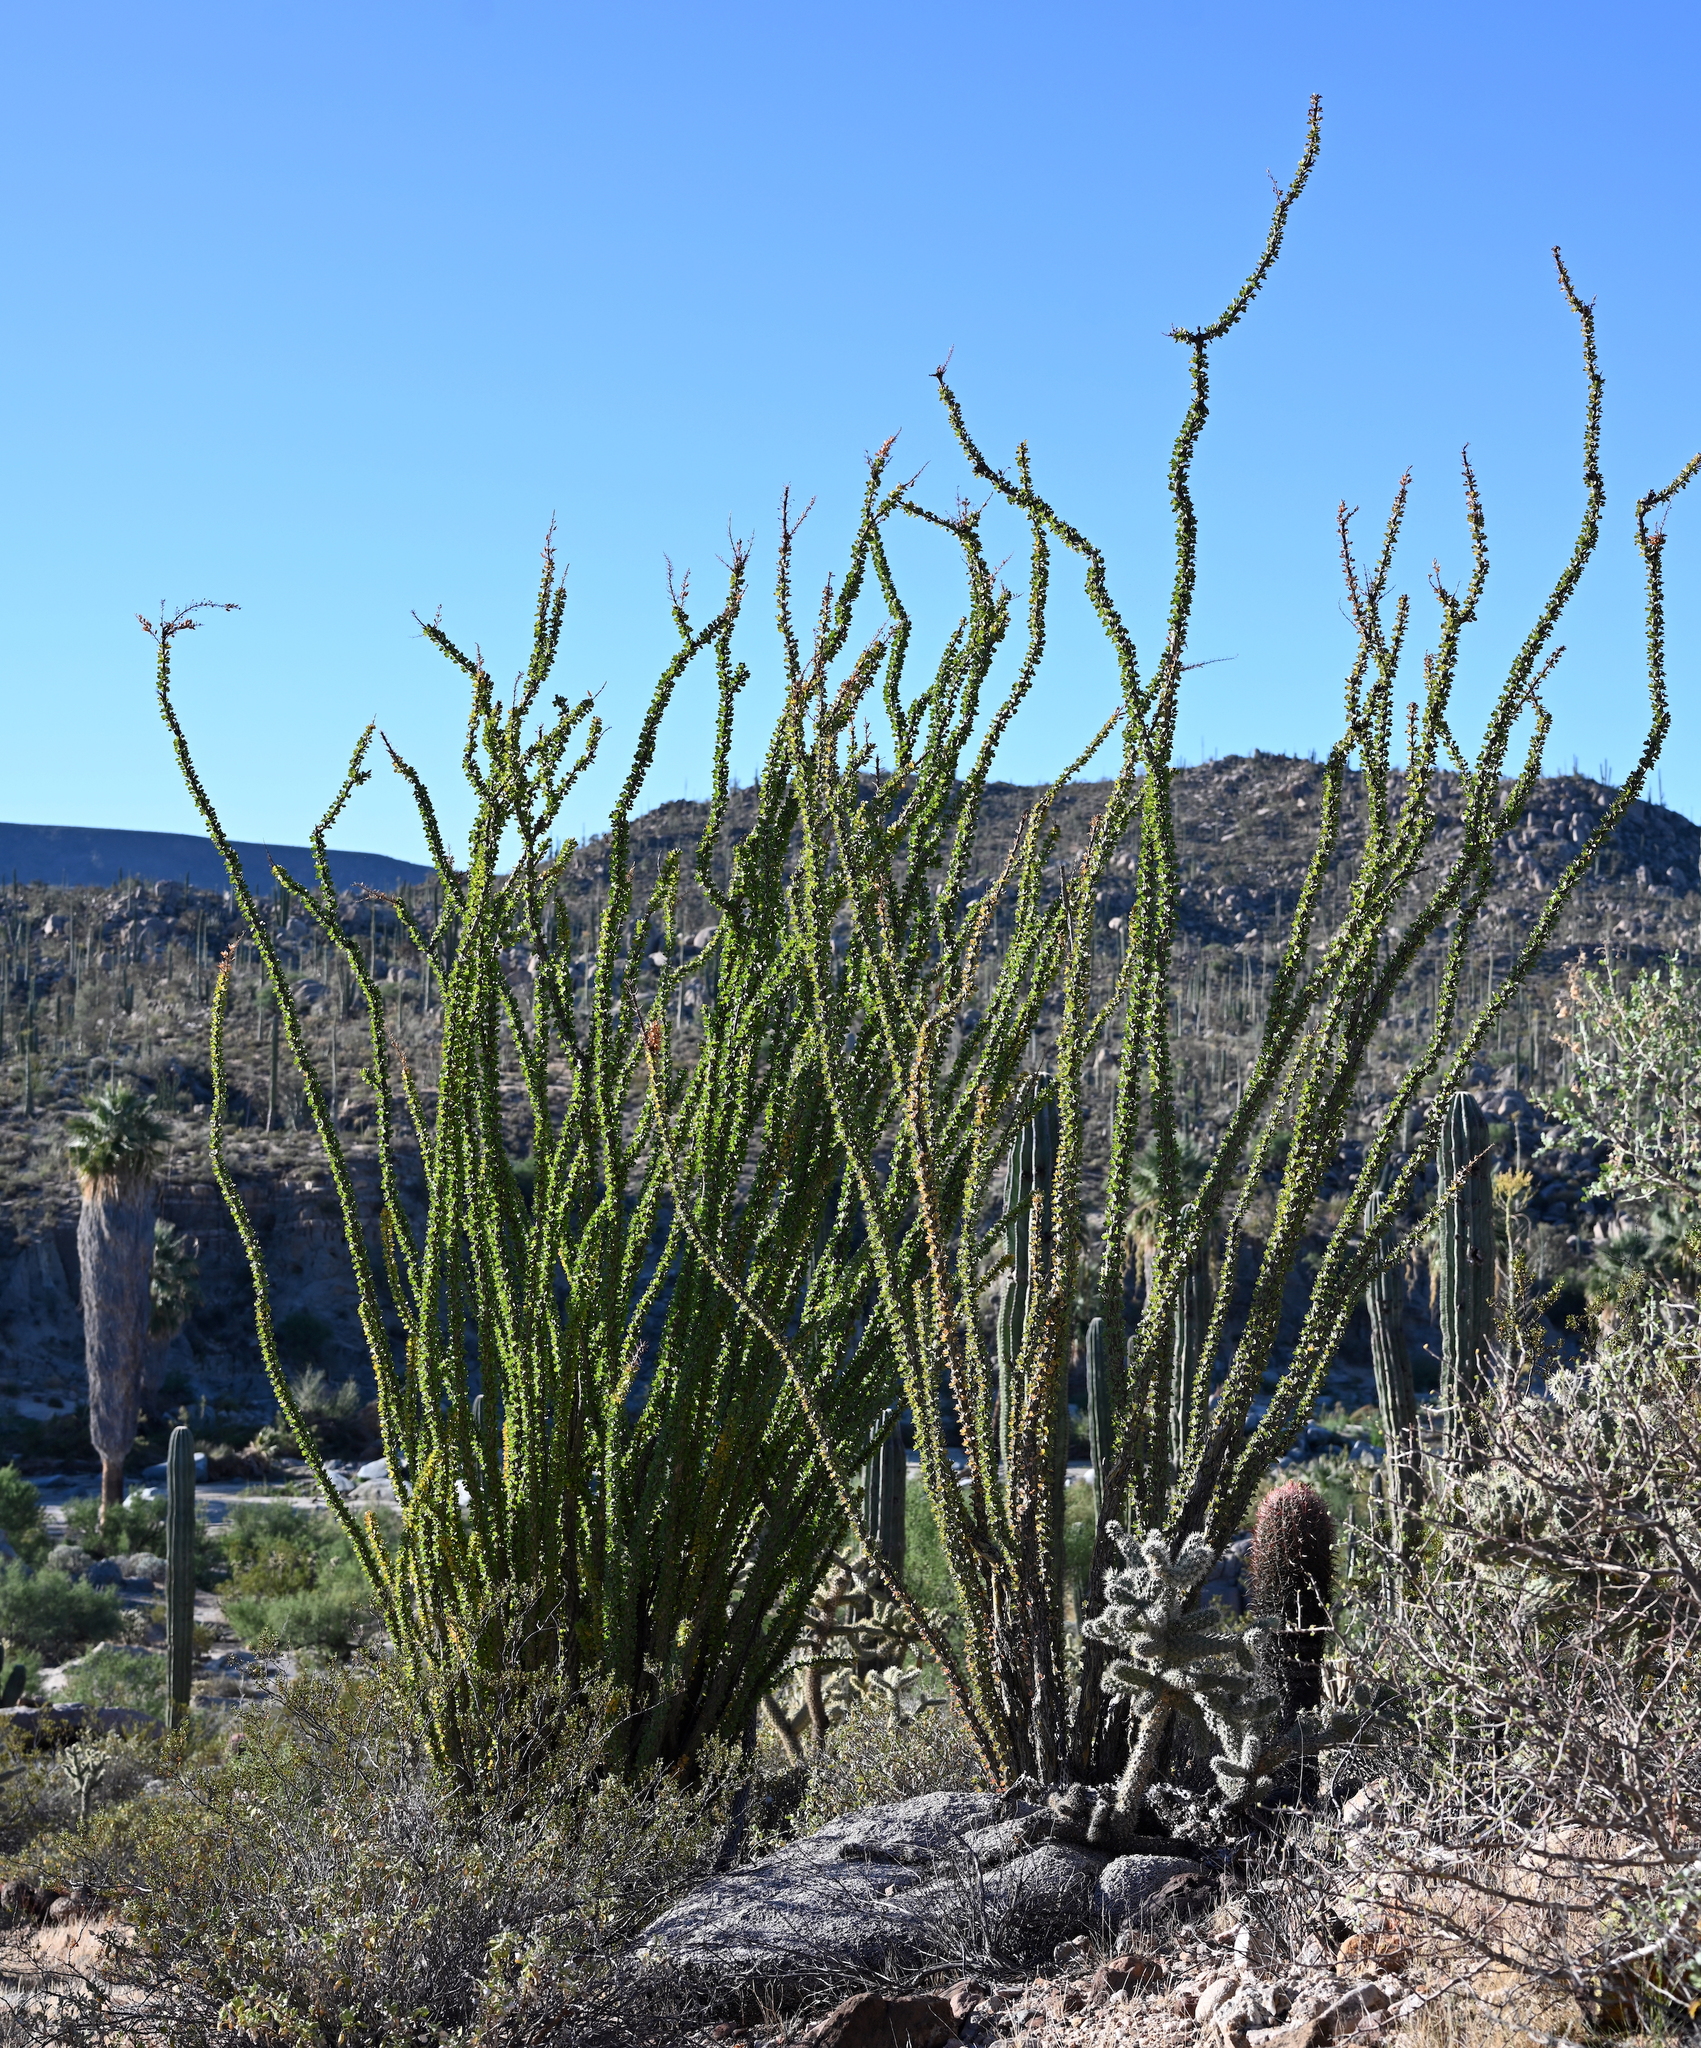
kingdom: Plantae
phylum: Tracheophyta
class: Magnoliopsida
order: Ericales
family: Fouquieriaceae
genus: Fouquieria
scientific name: Fouquieria splendens
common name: Vine-cactus
